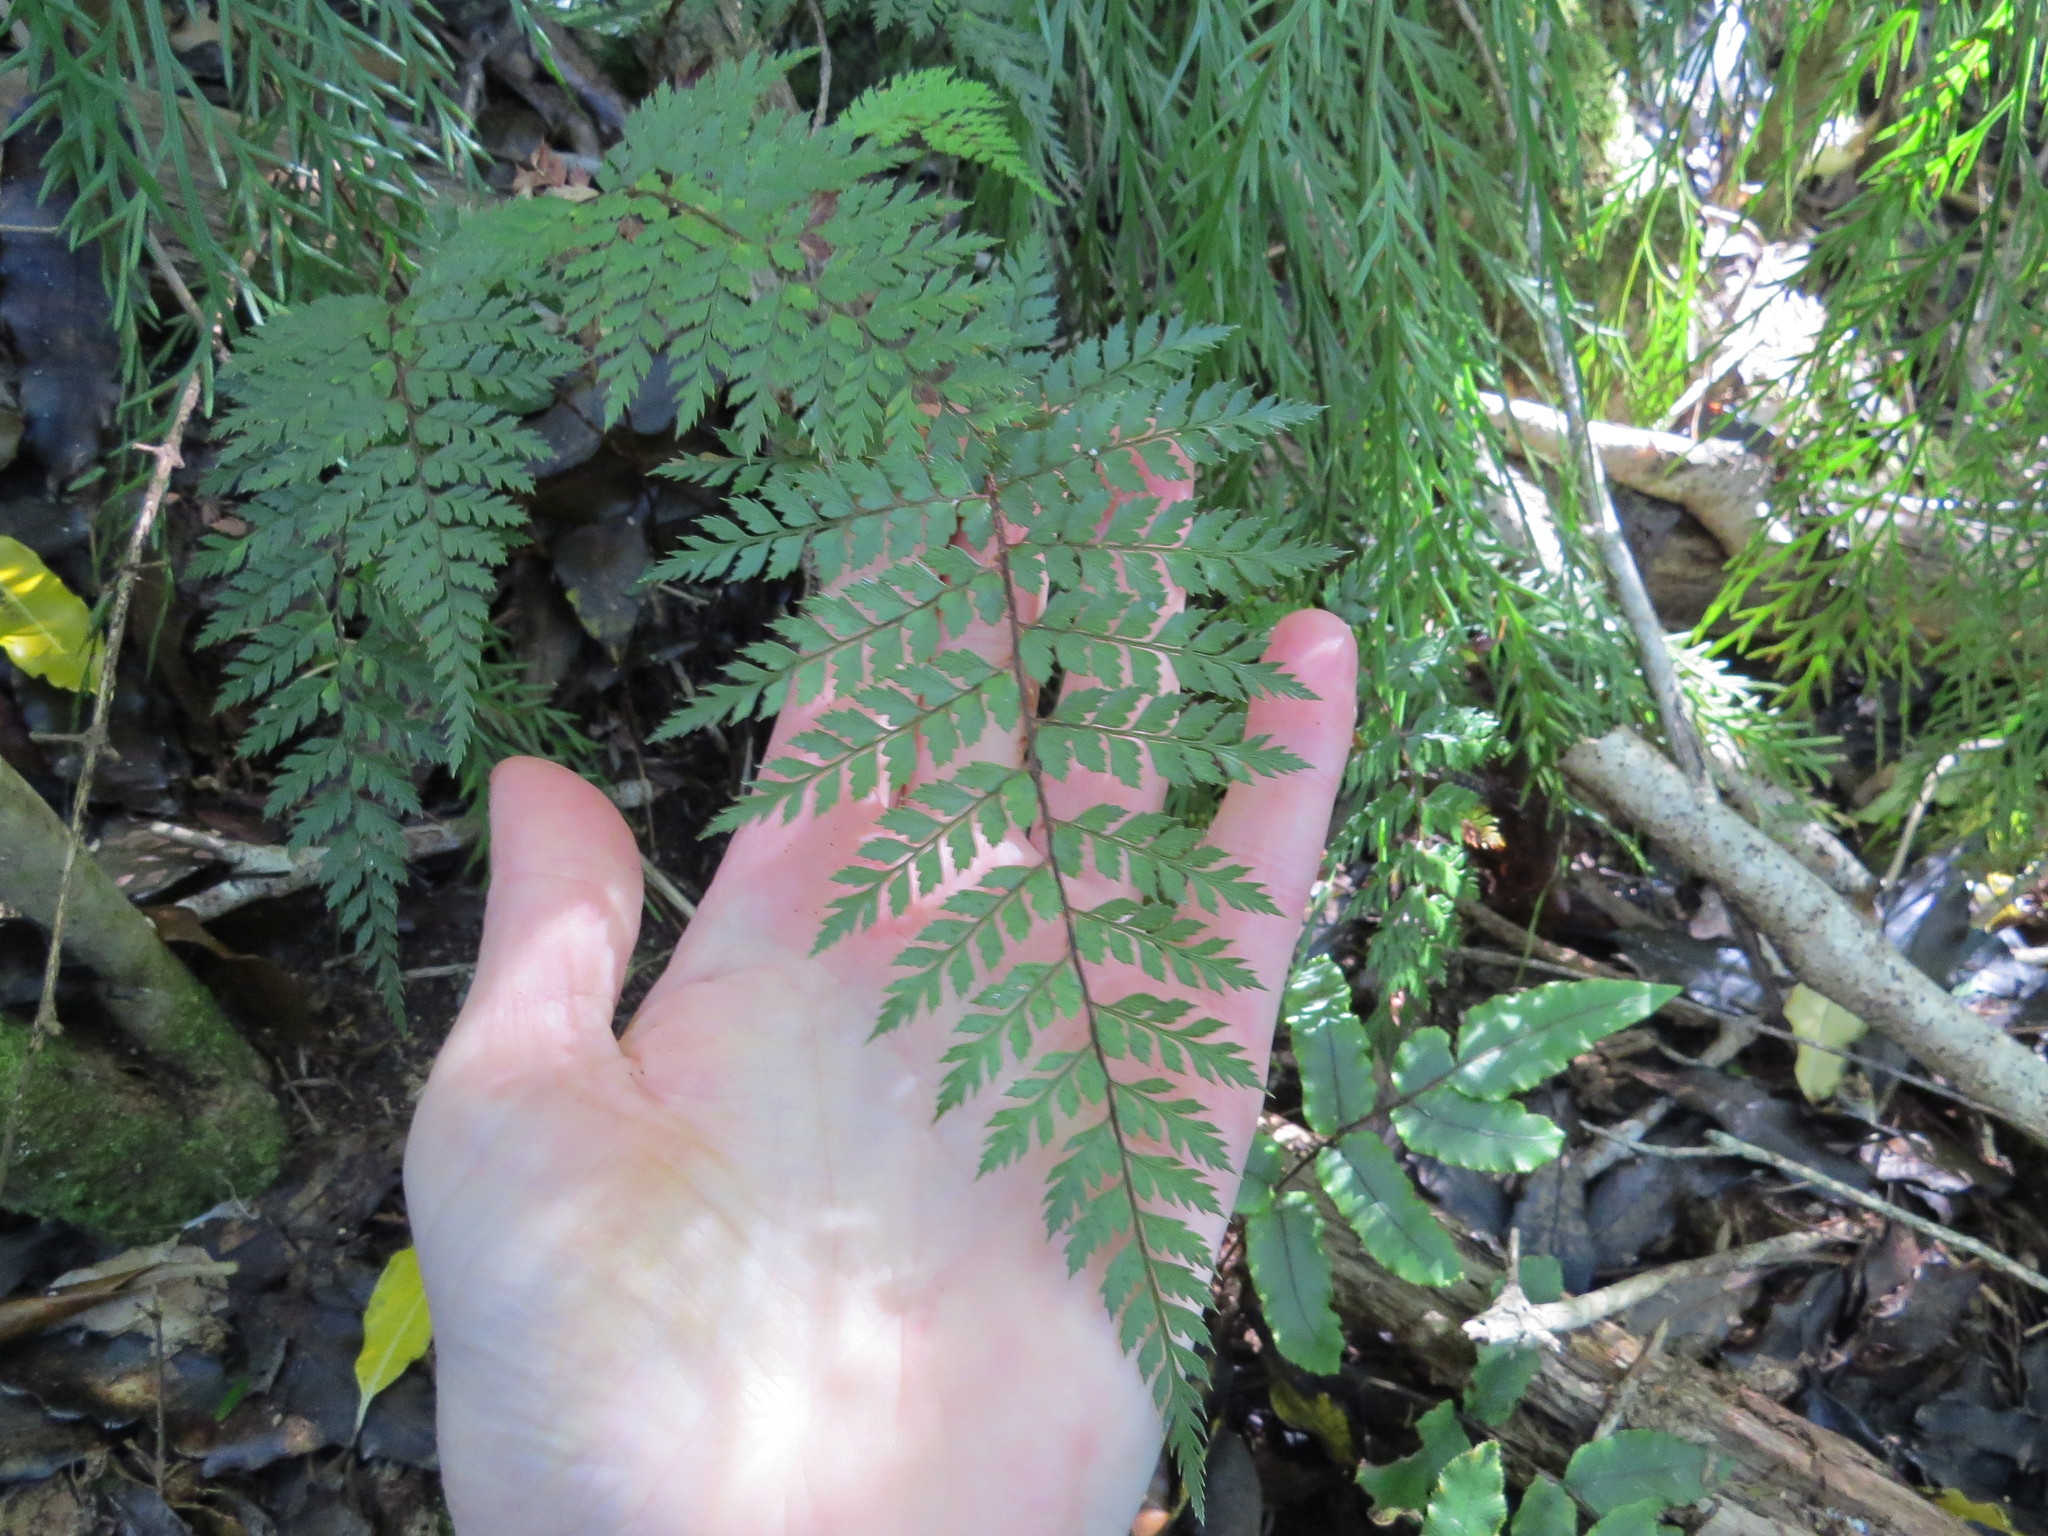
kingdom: Plantae
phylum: Tracheophyta
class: Polypodiopsida
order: Polypodiales
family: Dryopteridaceae
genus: Polystichum
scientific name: Polystichum vestitum
